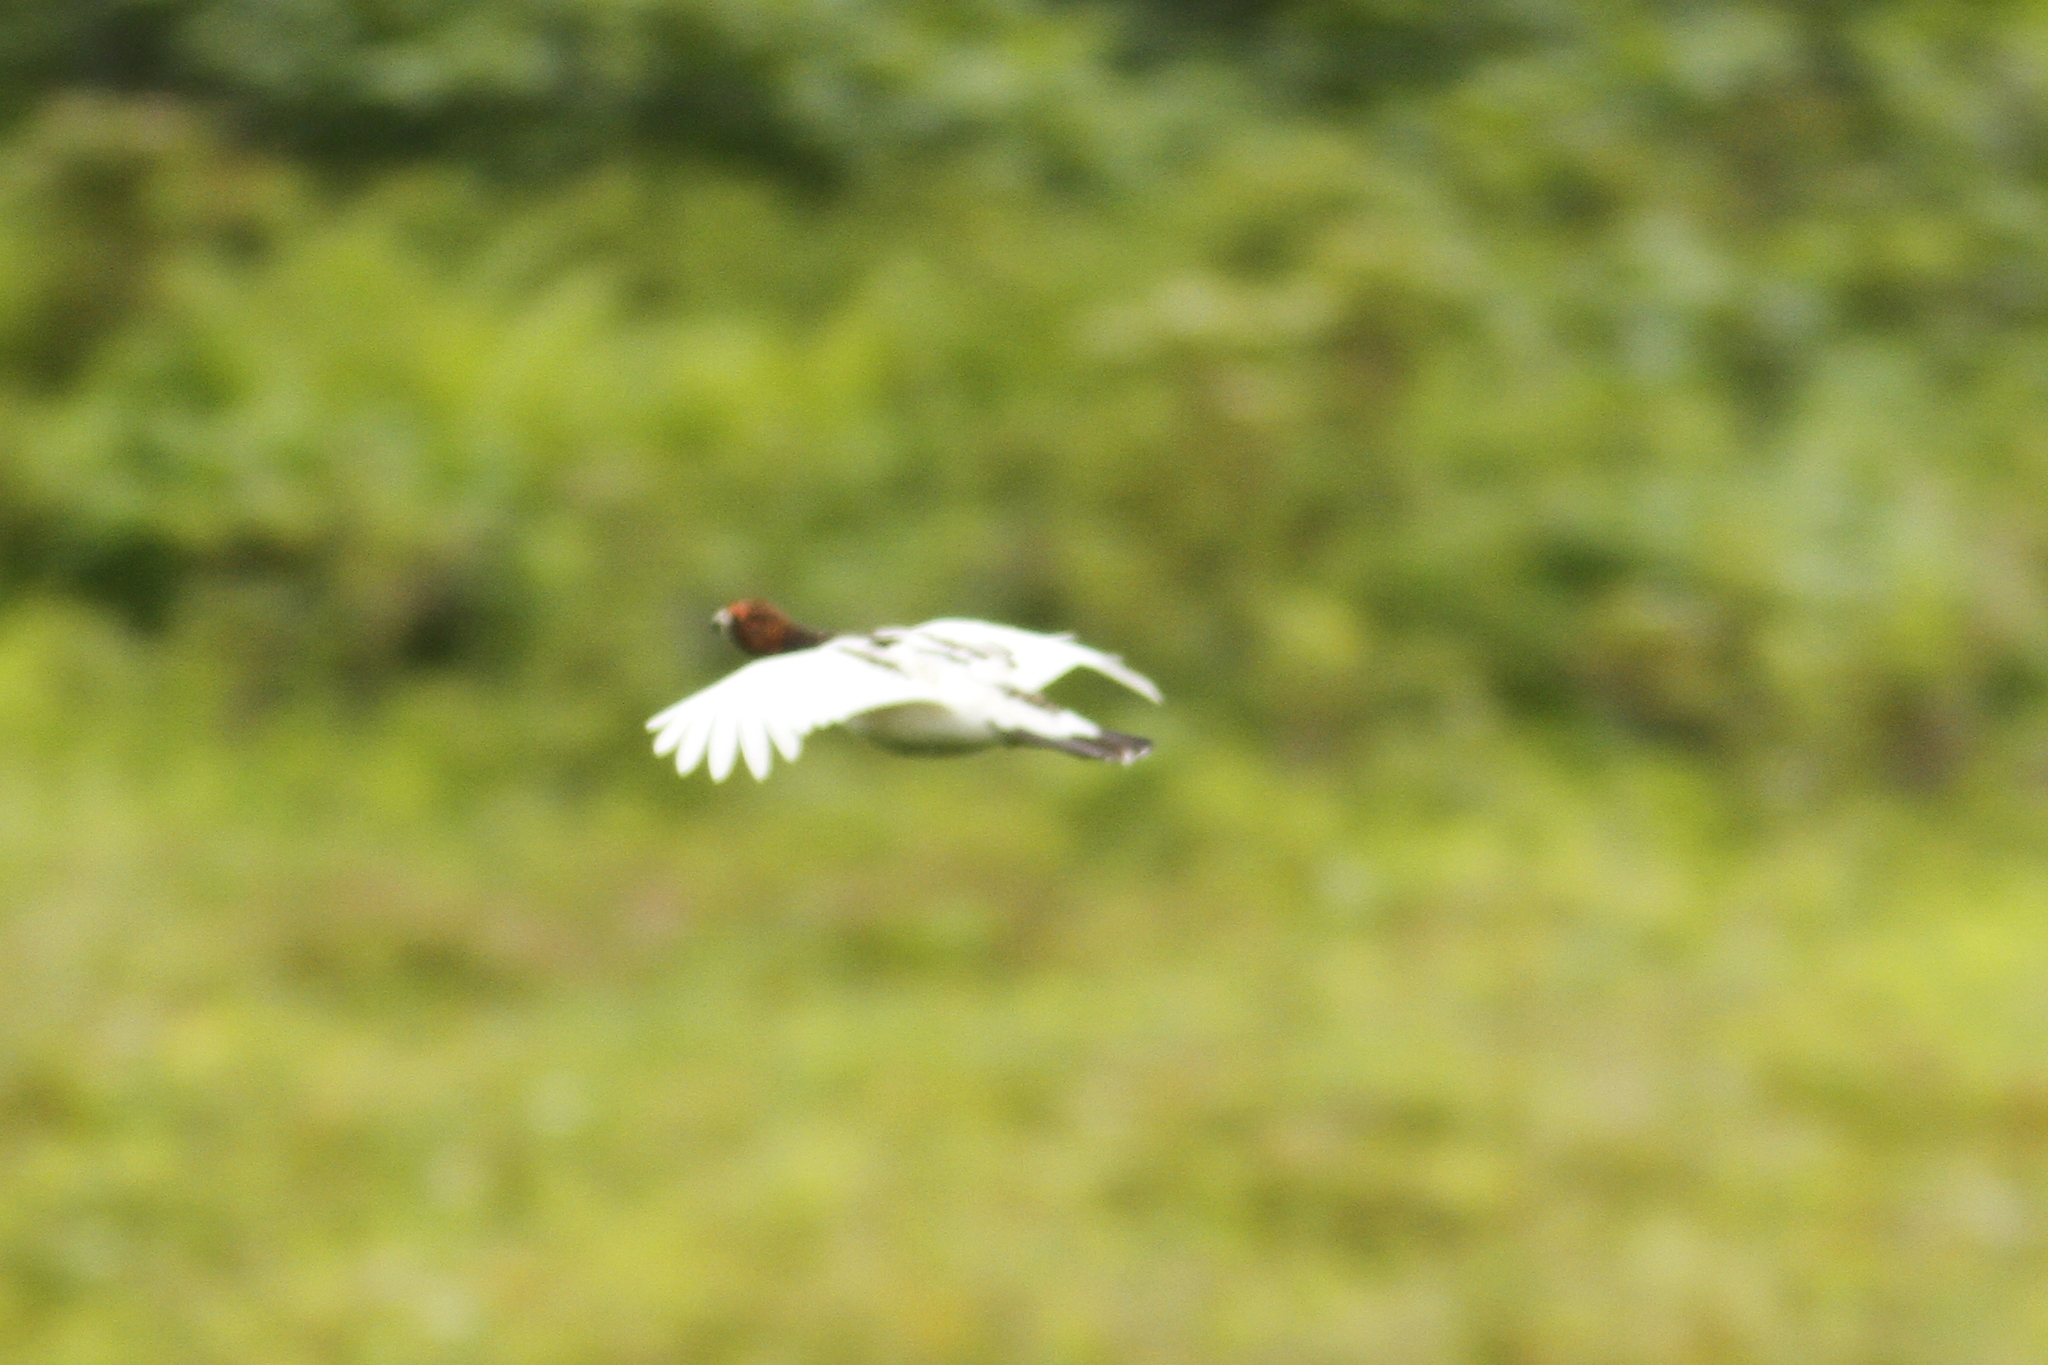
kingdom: Animalia
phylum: Chordata
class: Aves
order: Galliformes
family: Phasianidae
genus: Lagopus
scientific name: Lagopus lagopus
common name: Willow ptarmigan
